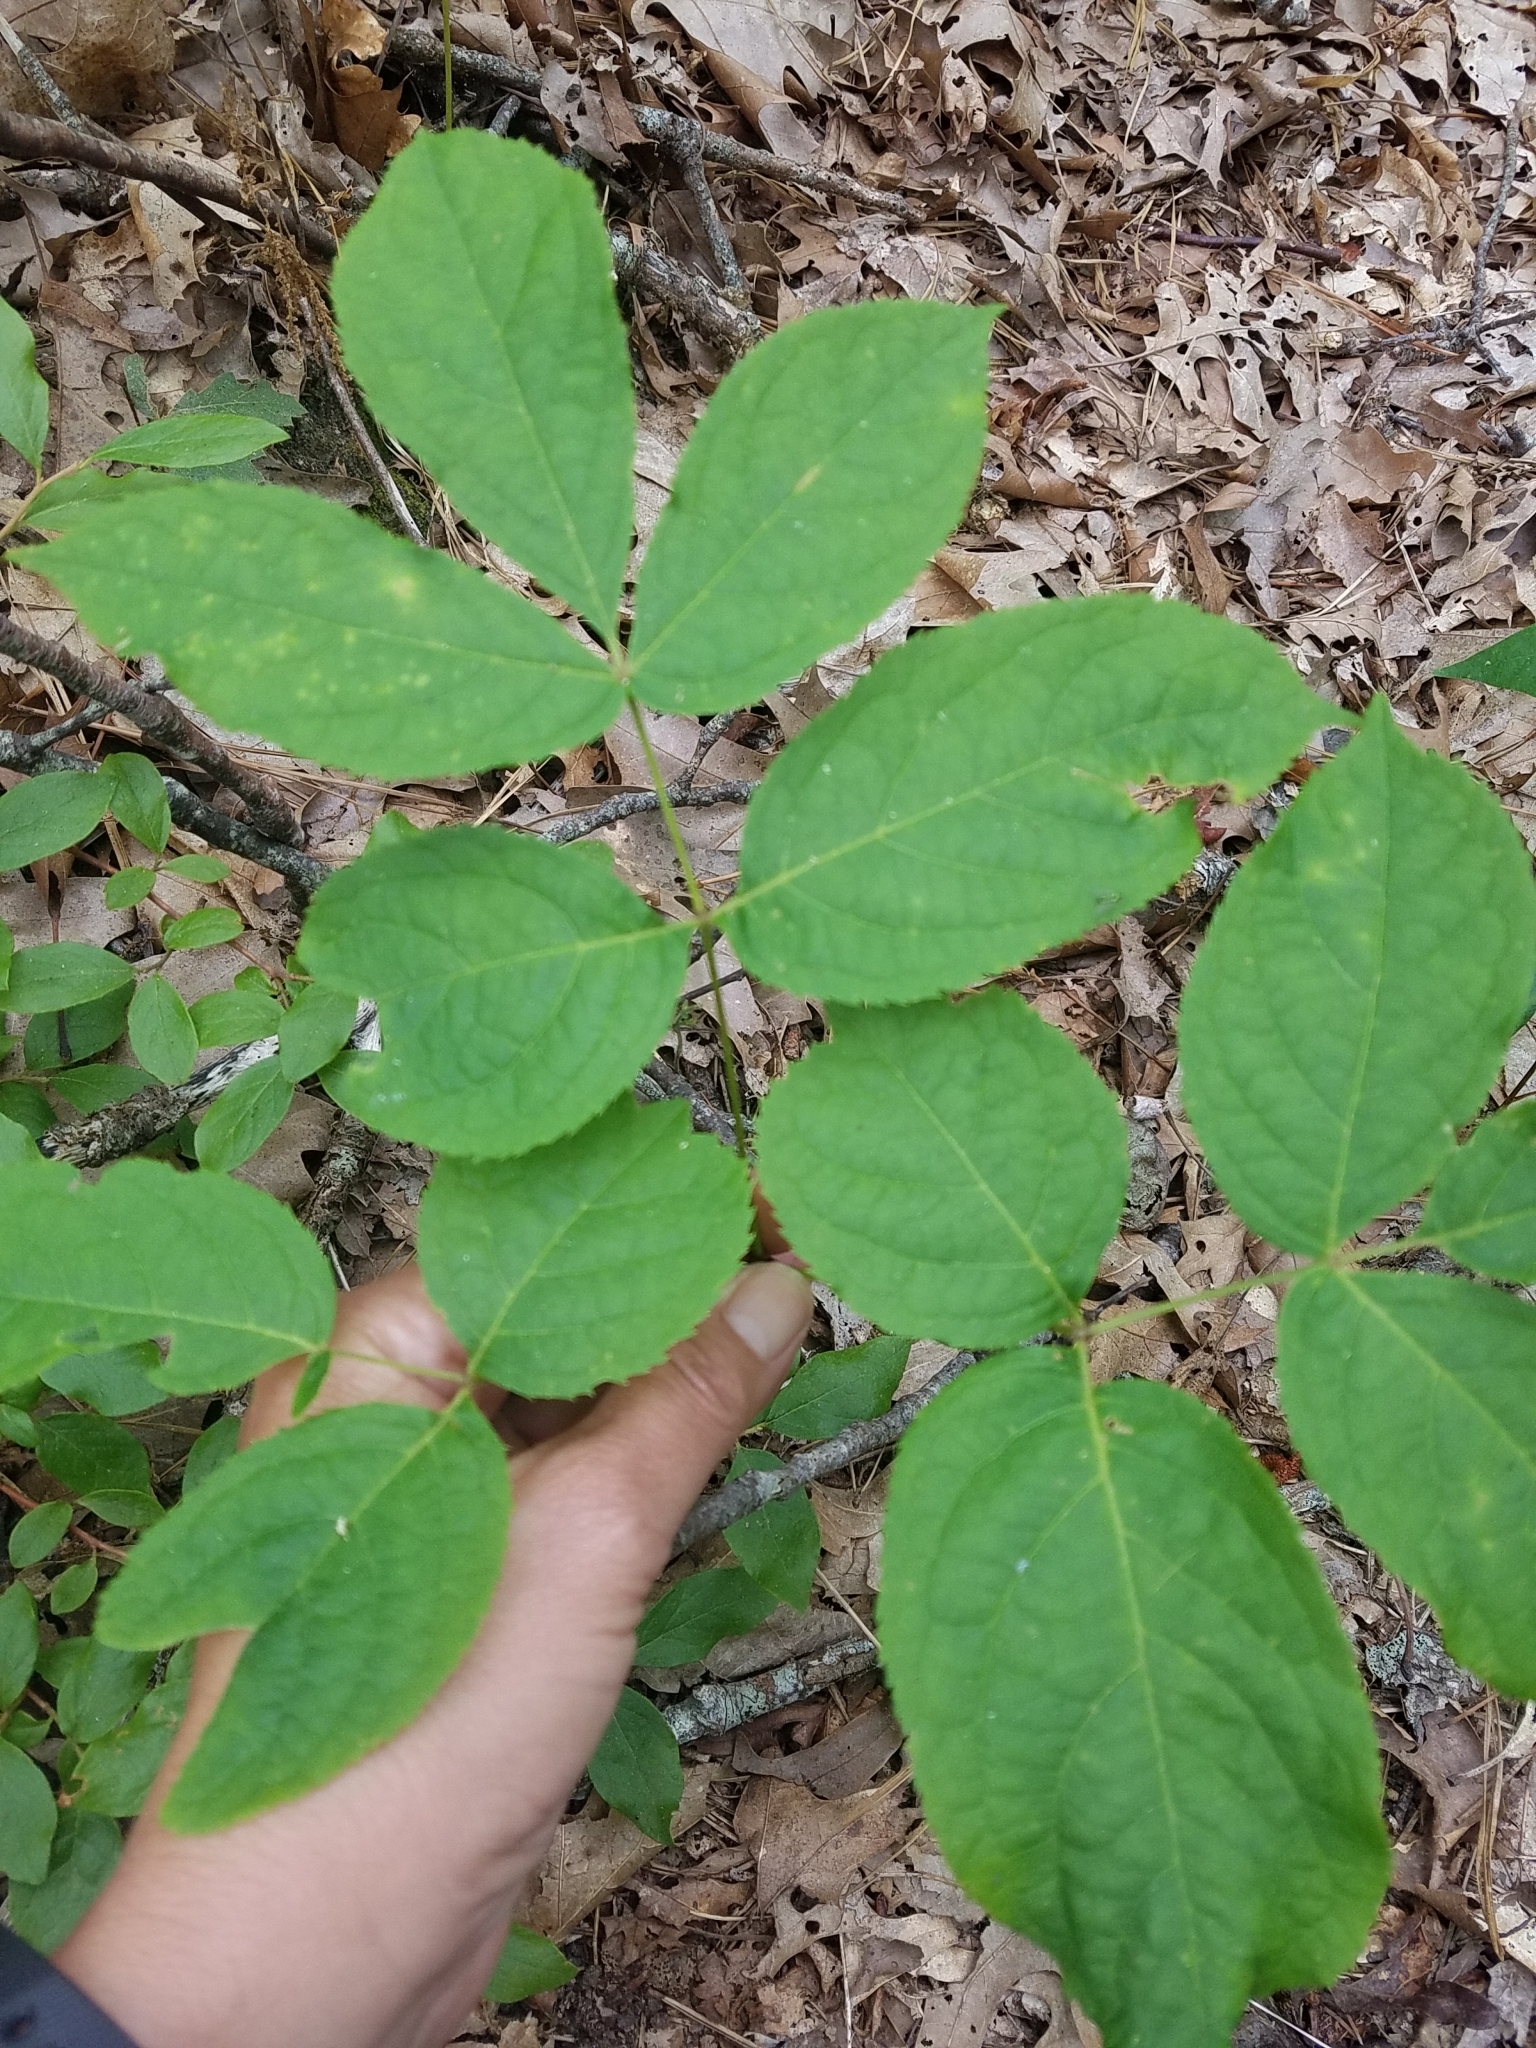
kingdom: Plantae
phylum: Tracheophyta
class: Magnoliopsida
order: Apiales
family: Araliaceae
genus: Aralia
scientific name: Aralia nudicaulis
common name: Wild sarsaparilla
